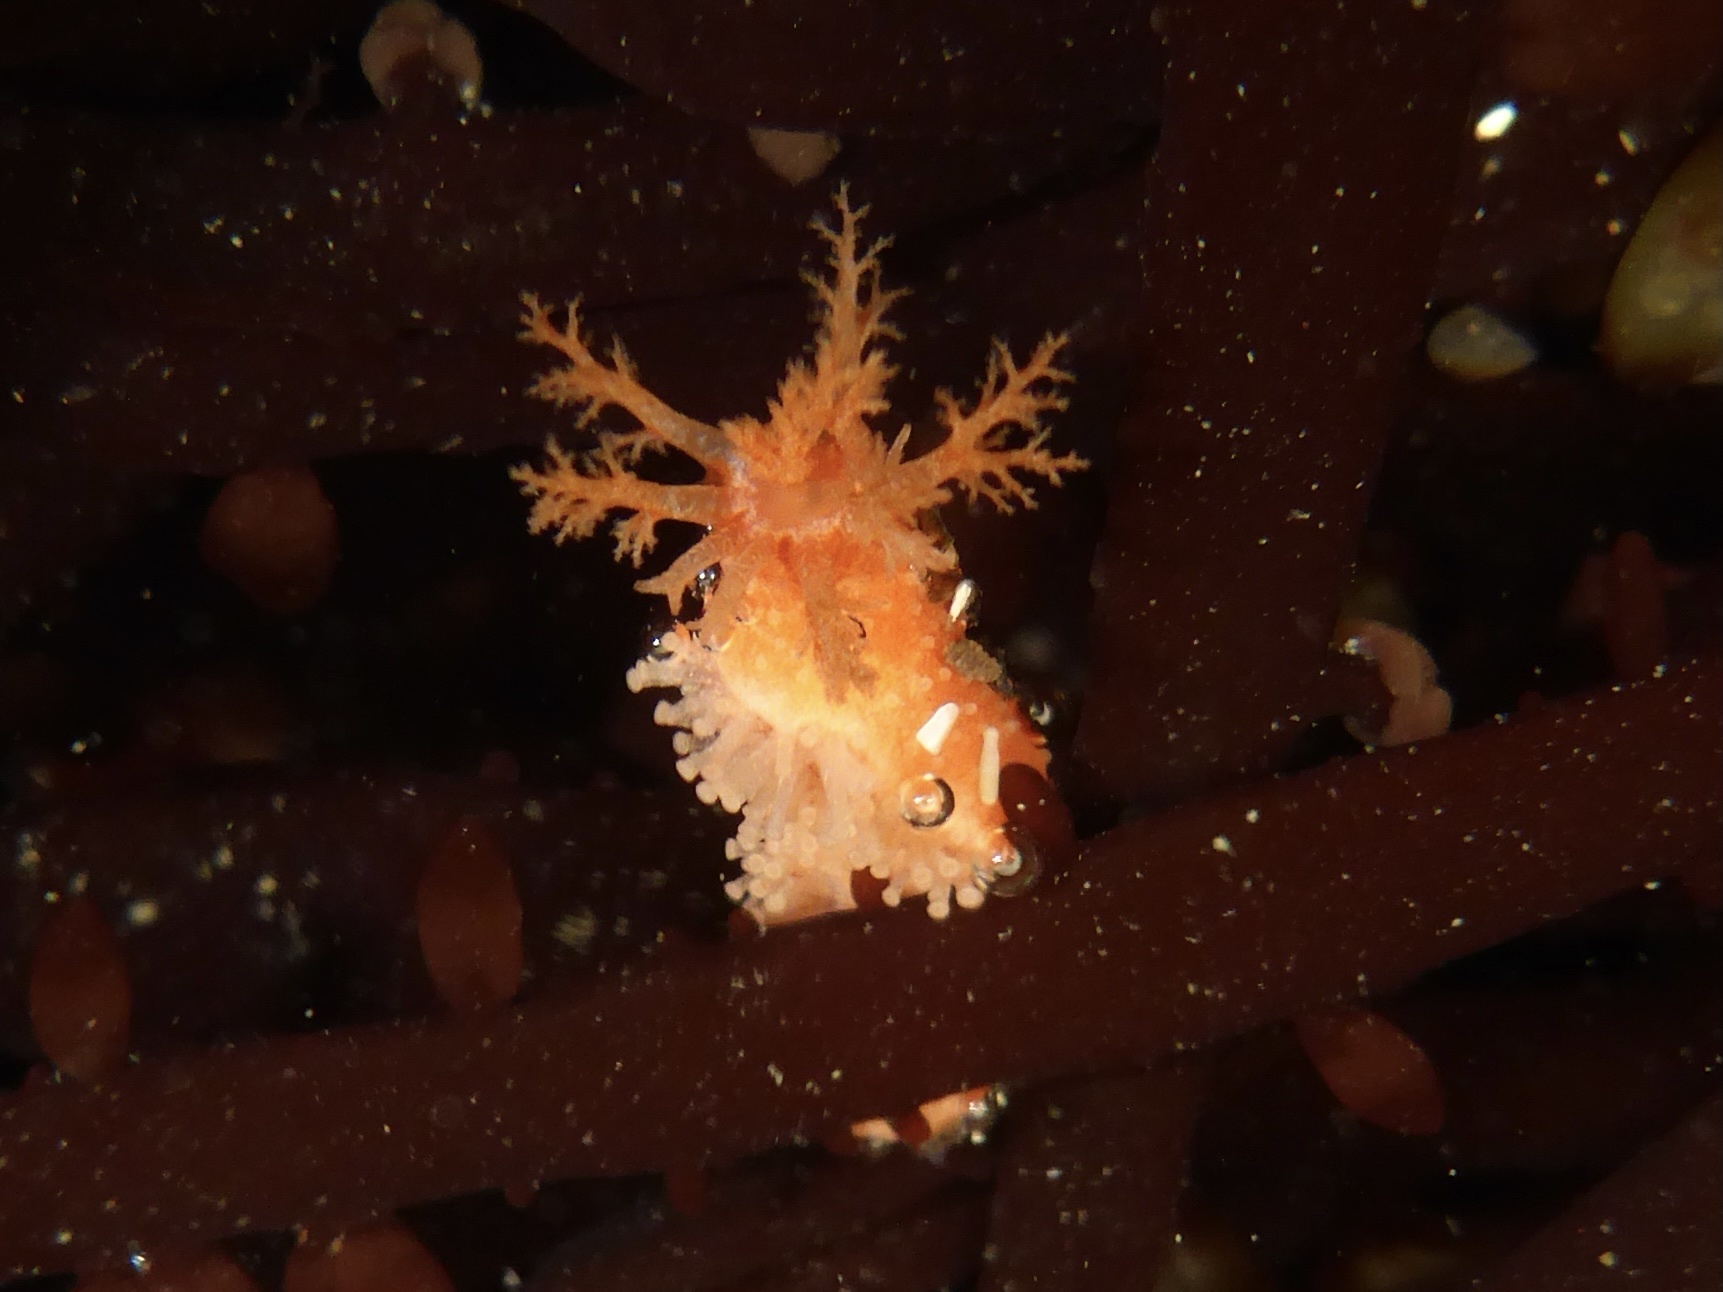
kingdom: Animalia
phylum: Echinodermata
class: Holothuroidea
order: Dendrochirotida
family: Psolidae
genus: Lissothuria
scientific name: Lissothuria nutriens
